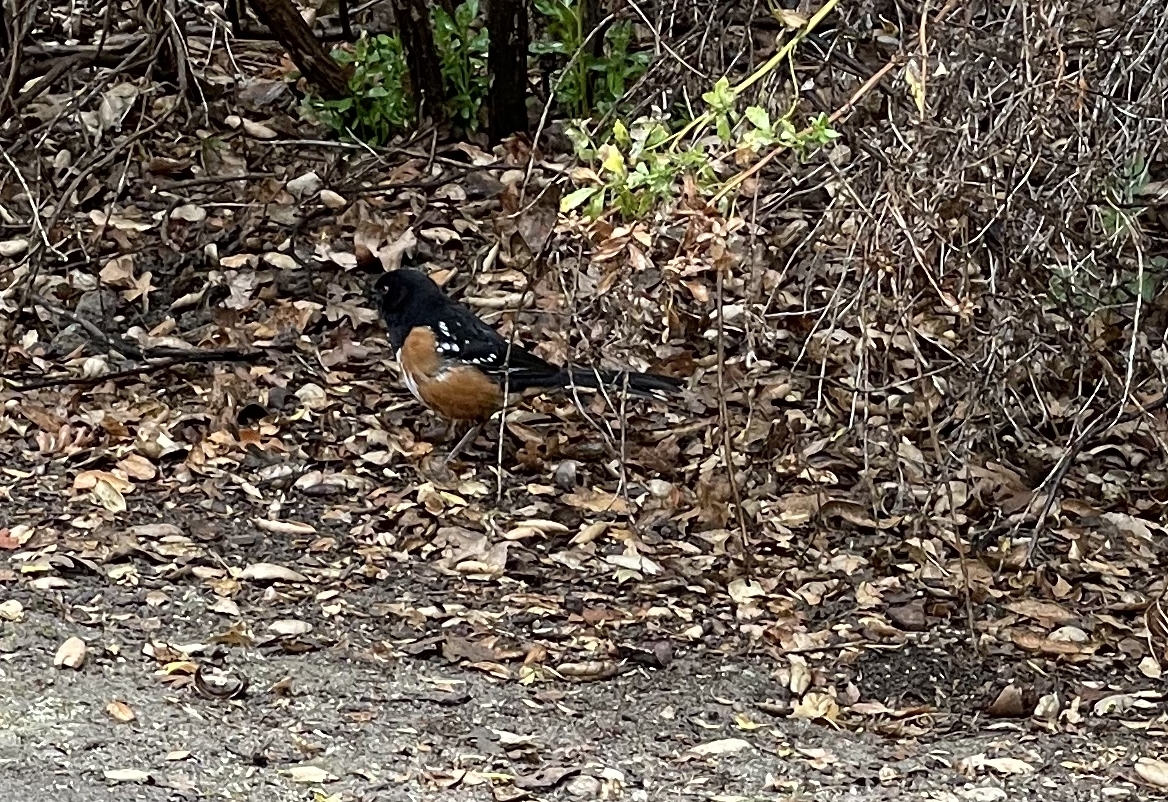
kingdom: Animalia
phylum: Chordata
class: Aves
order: Passeriformes
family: Passerellidae
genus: Pipilo
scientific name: Pipilo maculatus
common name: Spotted towhee
